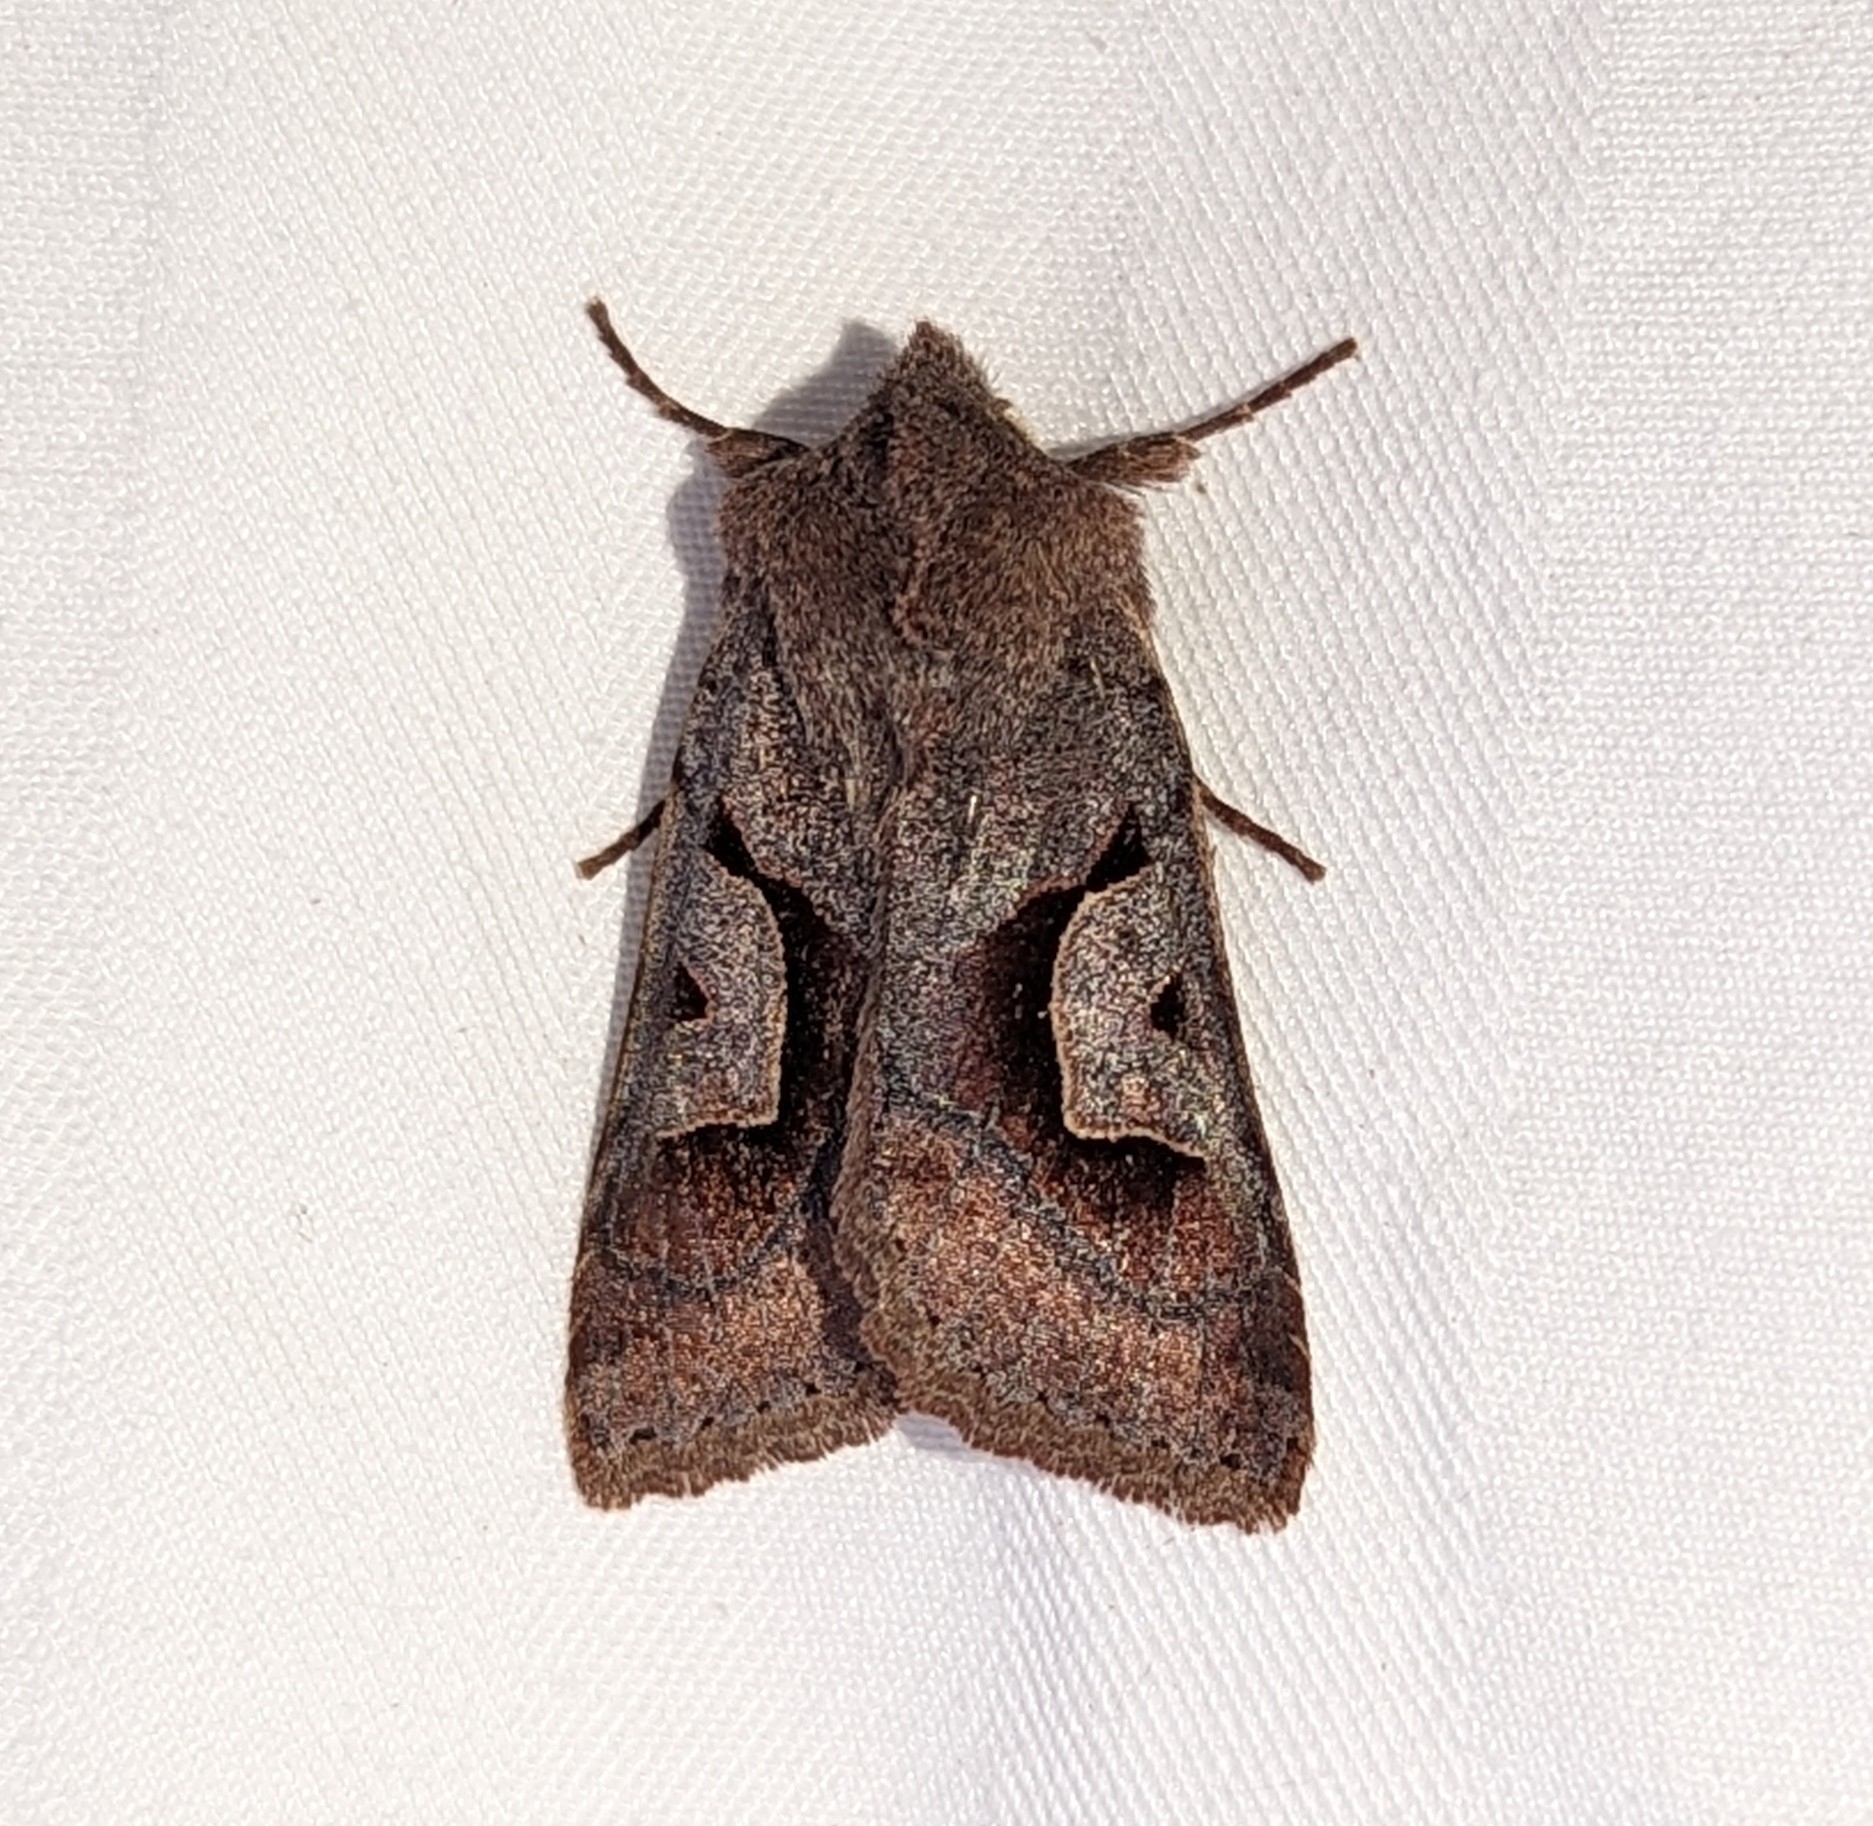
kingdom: Animalia
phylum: Arthropoda
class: Insecta
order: Lepidoptera
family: Noctuidae
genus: Acerra
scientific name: Acerra normalis
